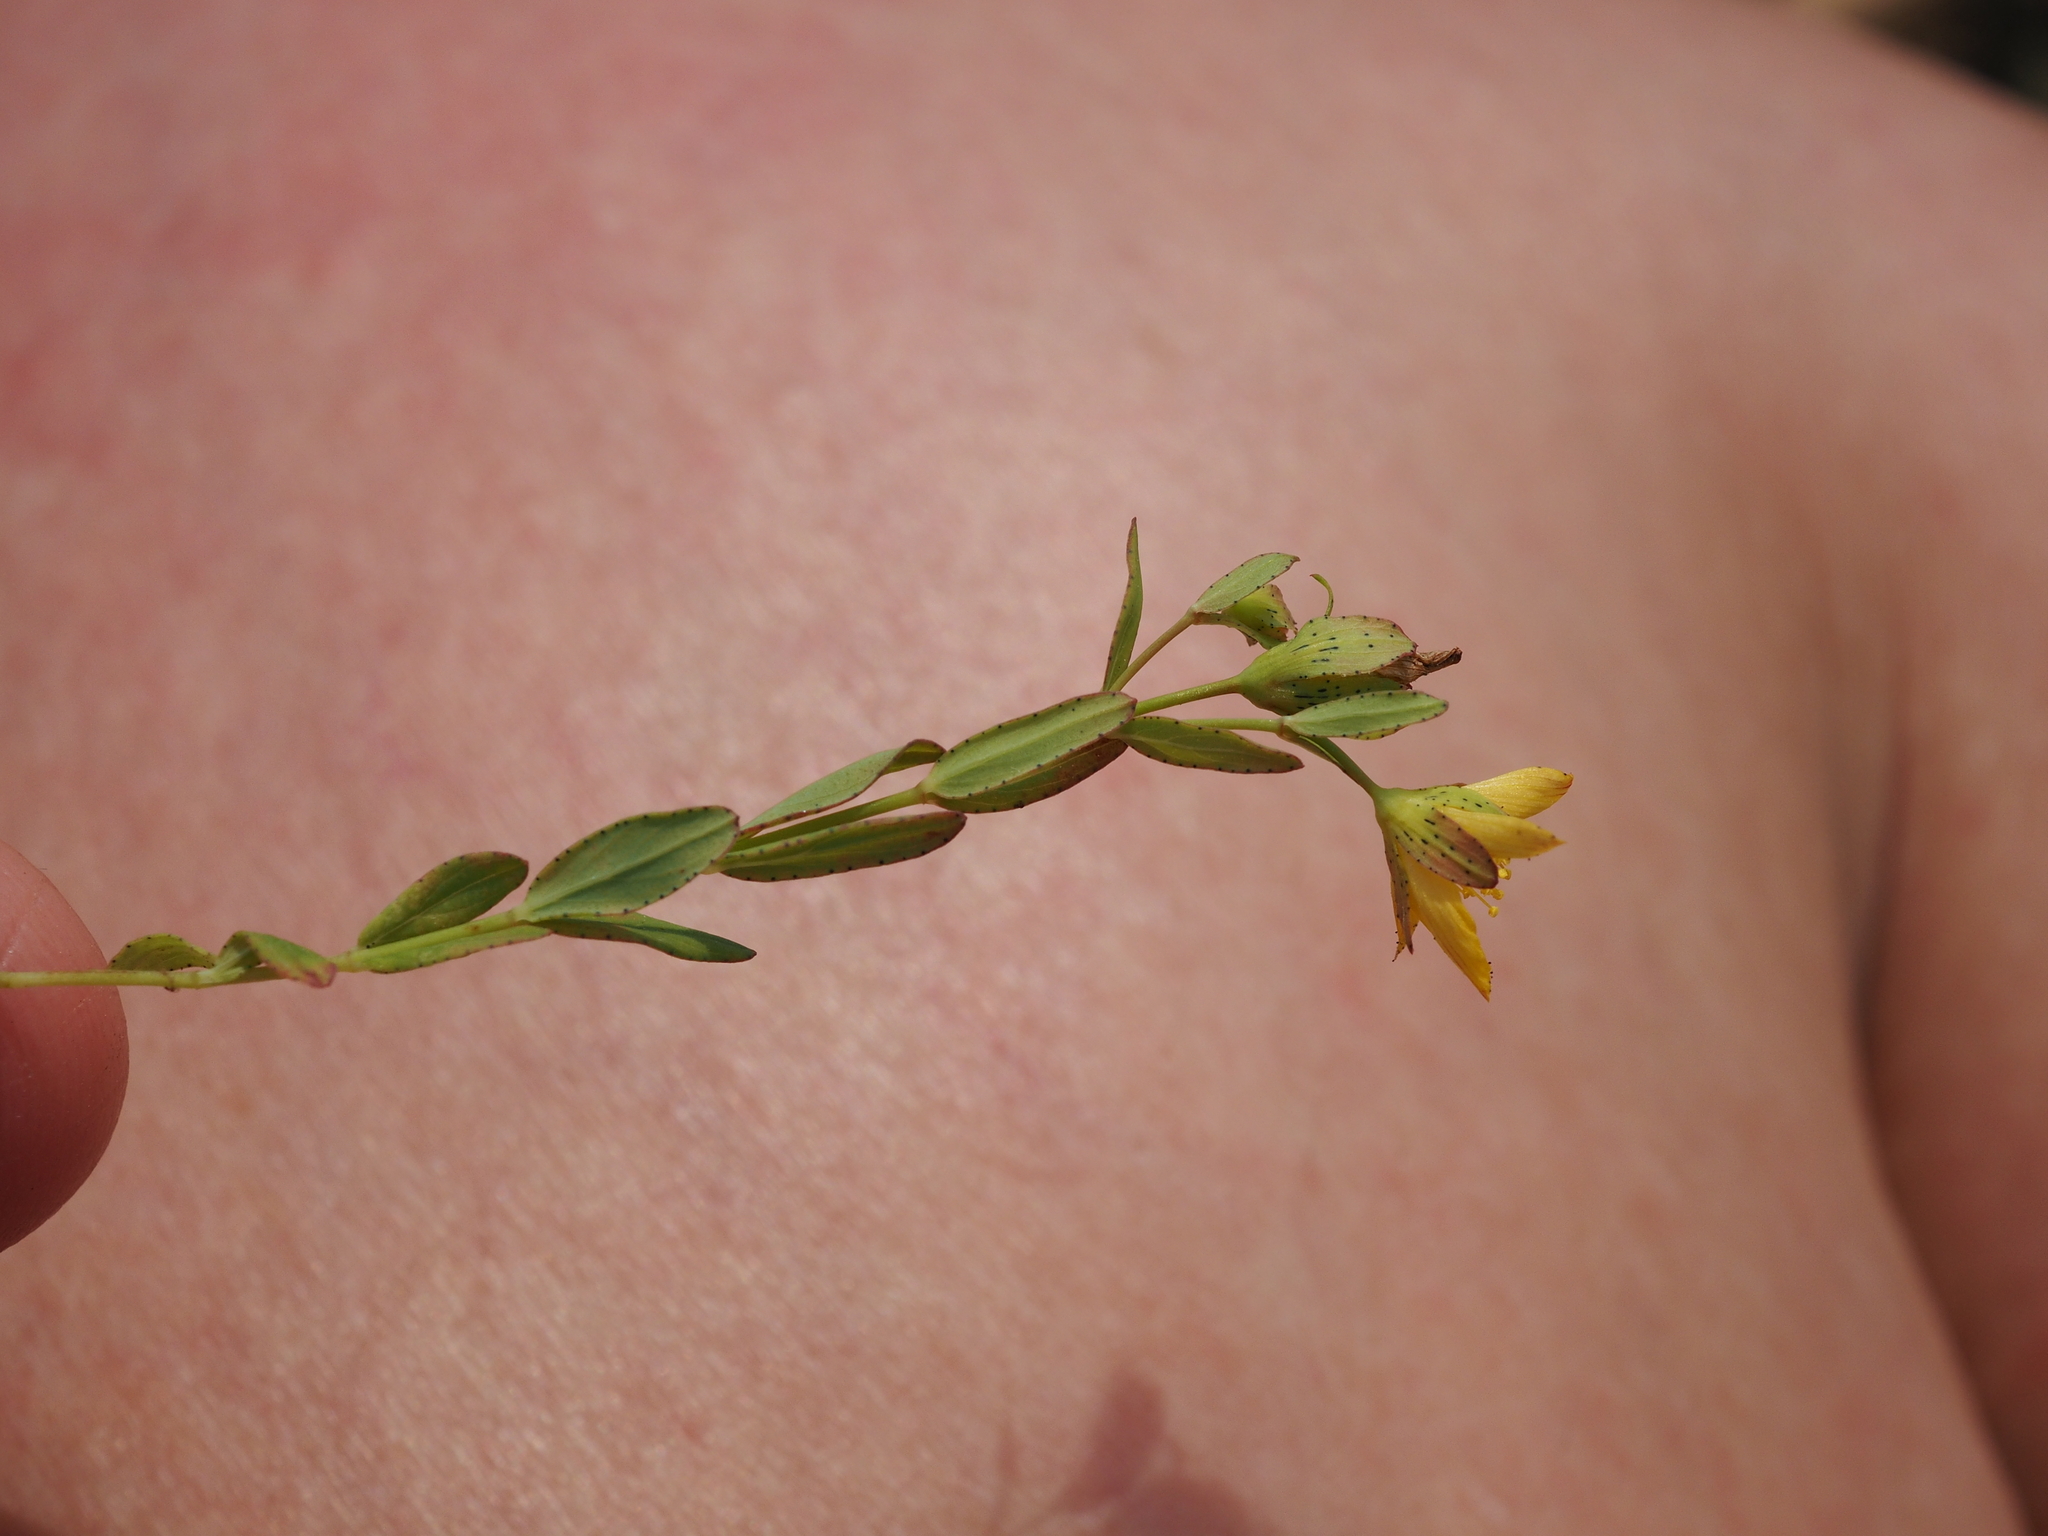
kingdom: Plantae
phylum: Tracheophyta
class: Magnoliopsida
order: Malpighiales
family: Hypericaceae
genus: Hypericum
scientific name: Hypericum humifusum
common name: Trailing st. john's-wort
